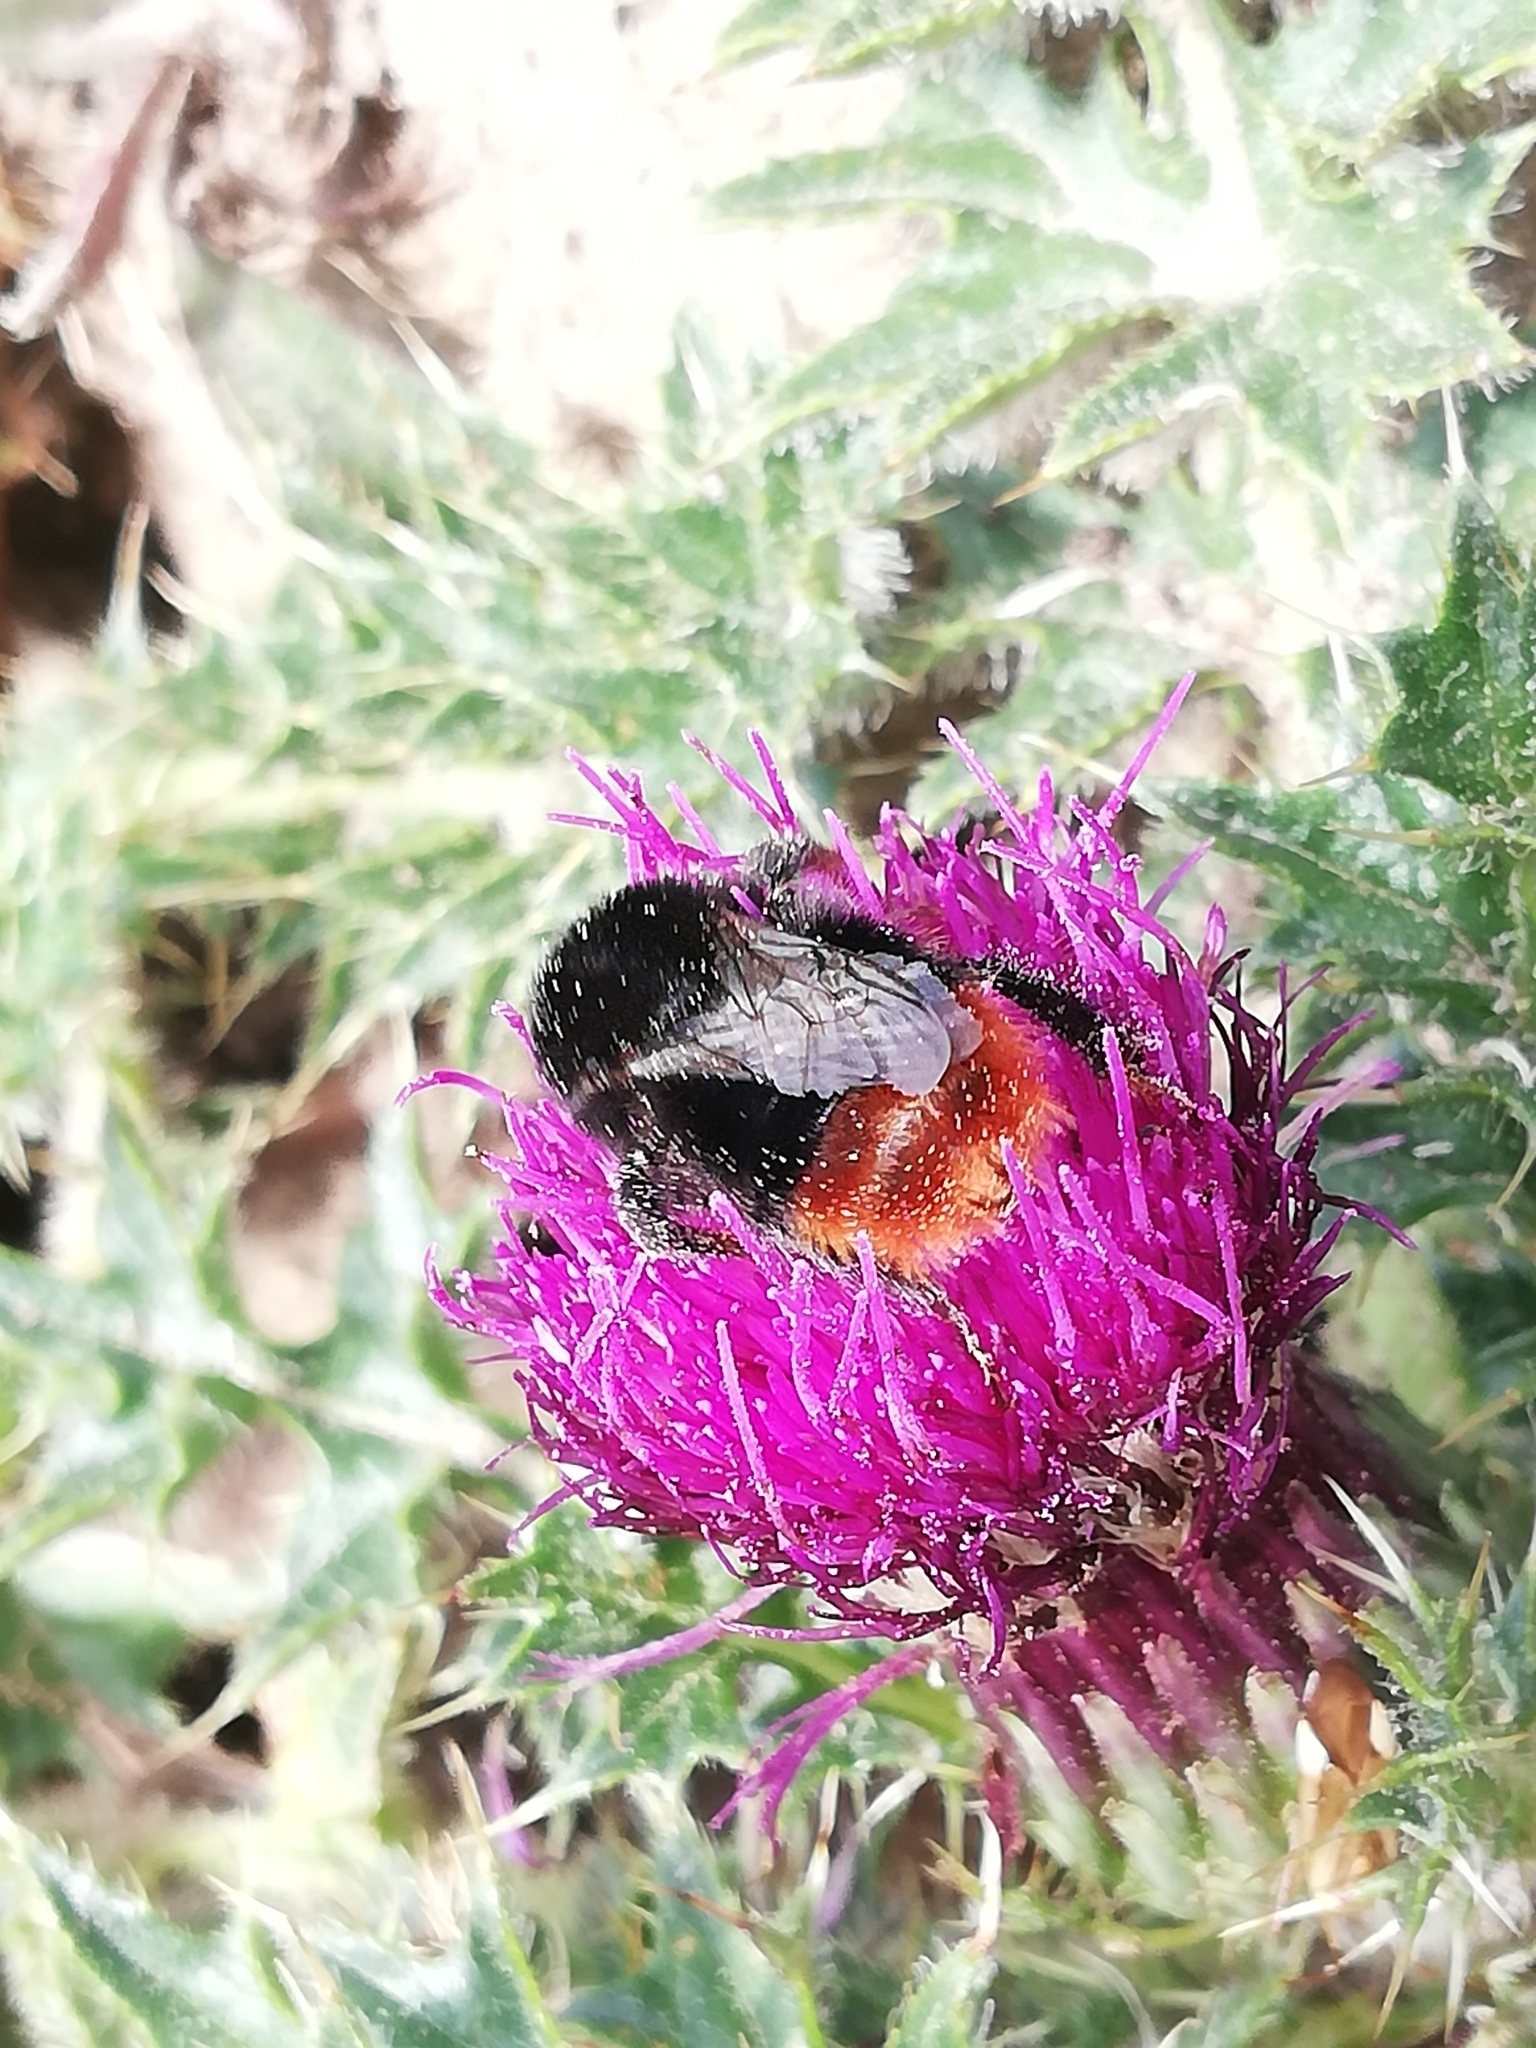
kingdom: Animalia
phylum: Arthropoda
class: Insecta
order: Hymenoptera
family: Apidae
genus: Bombus
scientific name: Bombus lapidarius
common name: Large red-tailed humble-bee
